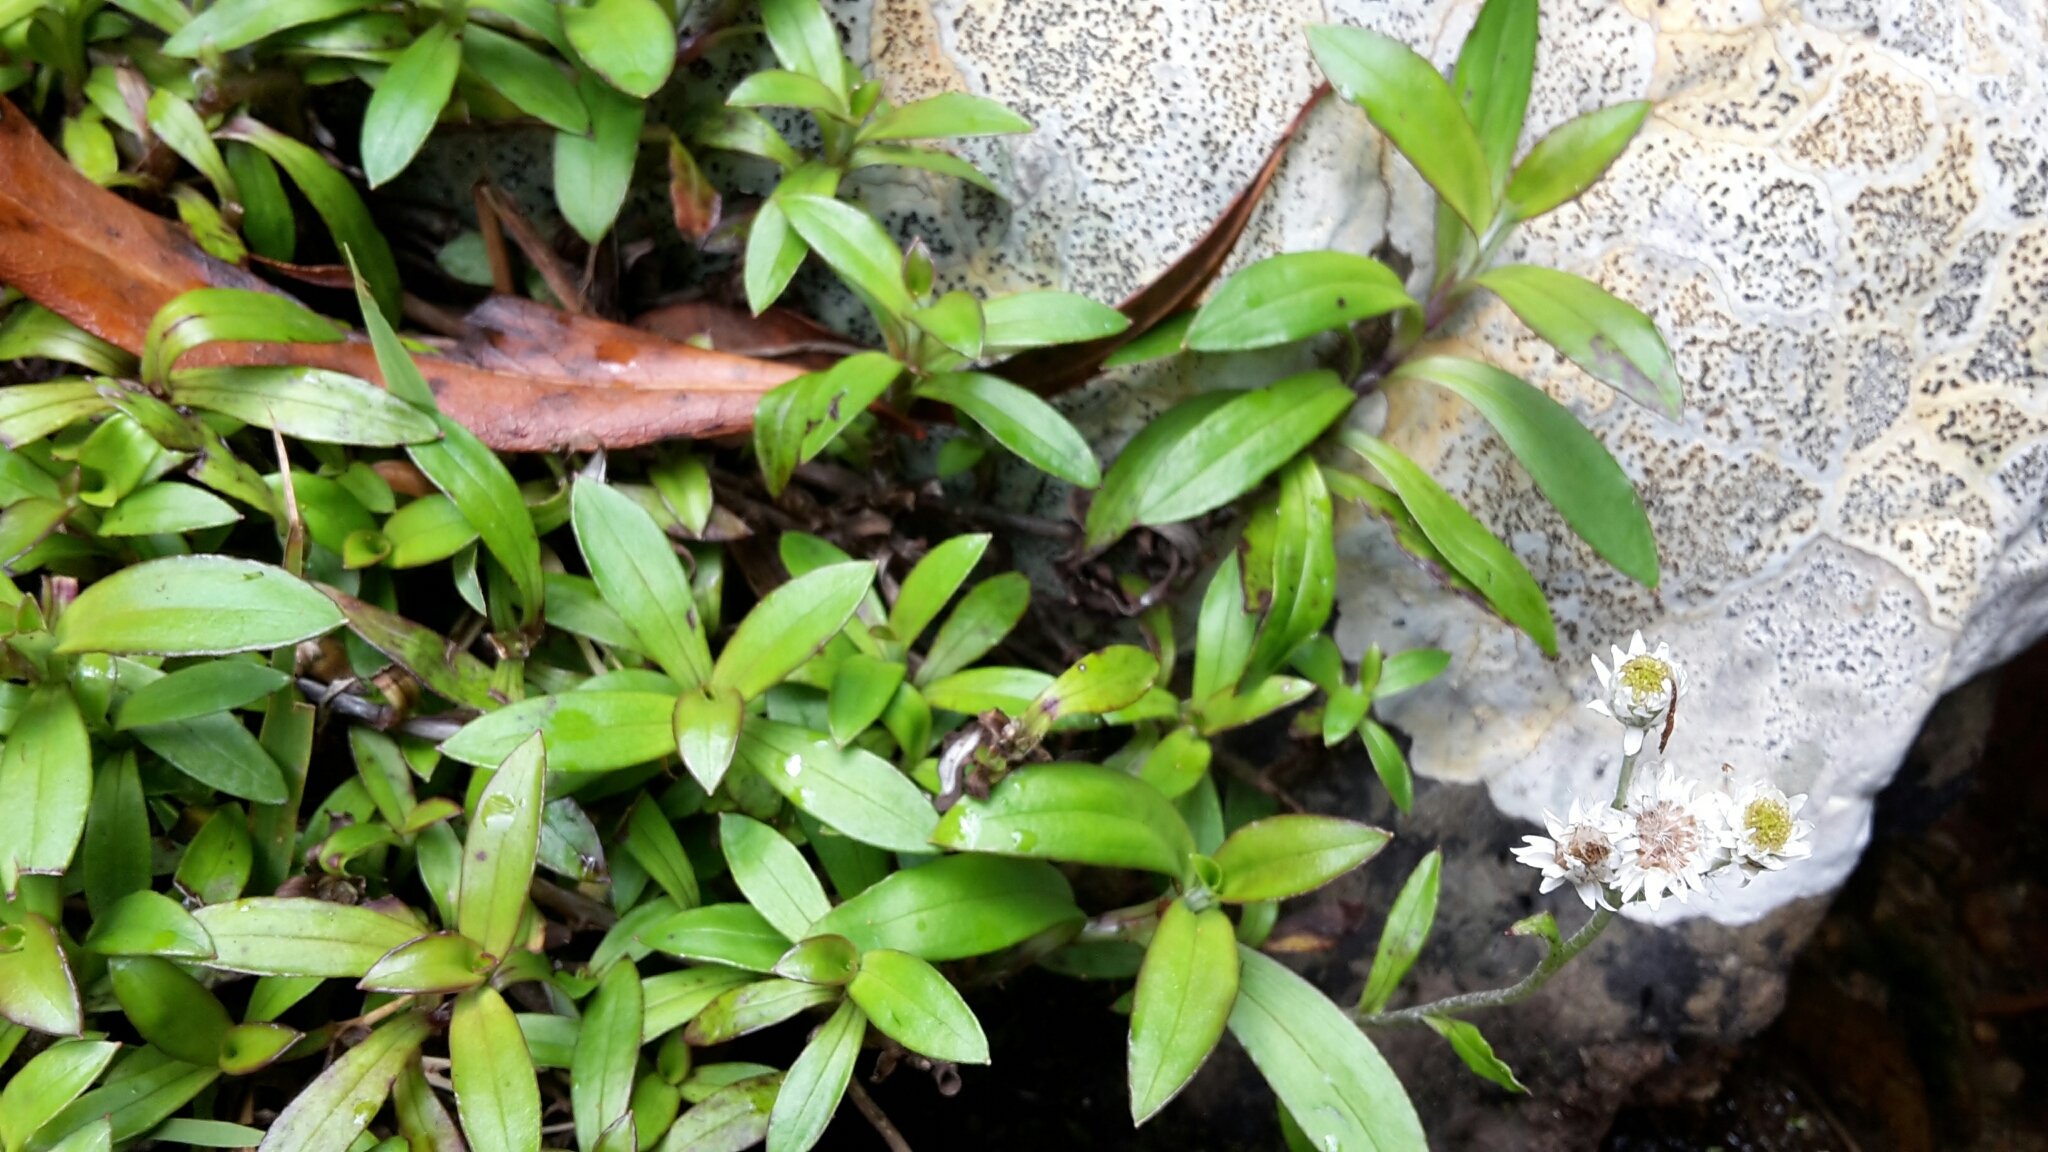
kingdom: Plantae
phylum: Tracheophyta
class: Magnoliopsida
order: Asterales
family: Asteraceae
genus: Anaphalioides
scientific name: Anaphalioides trinervis
